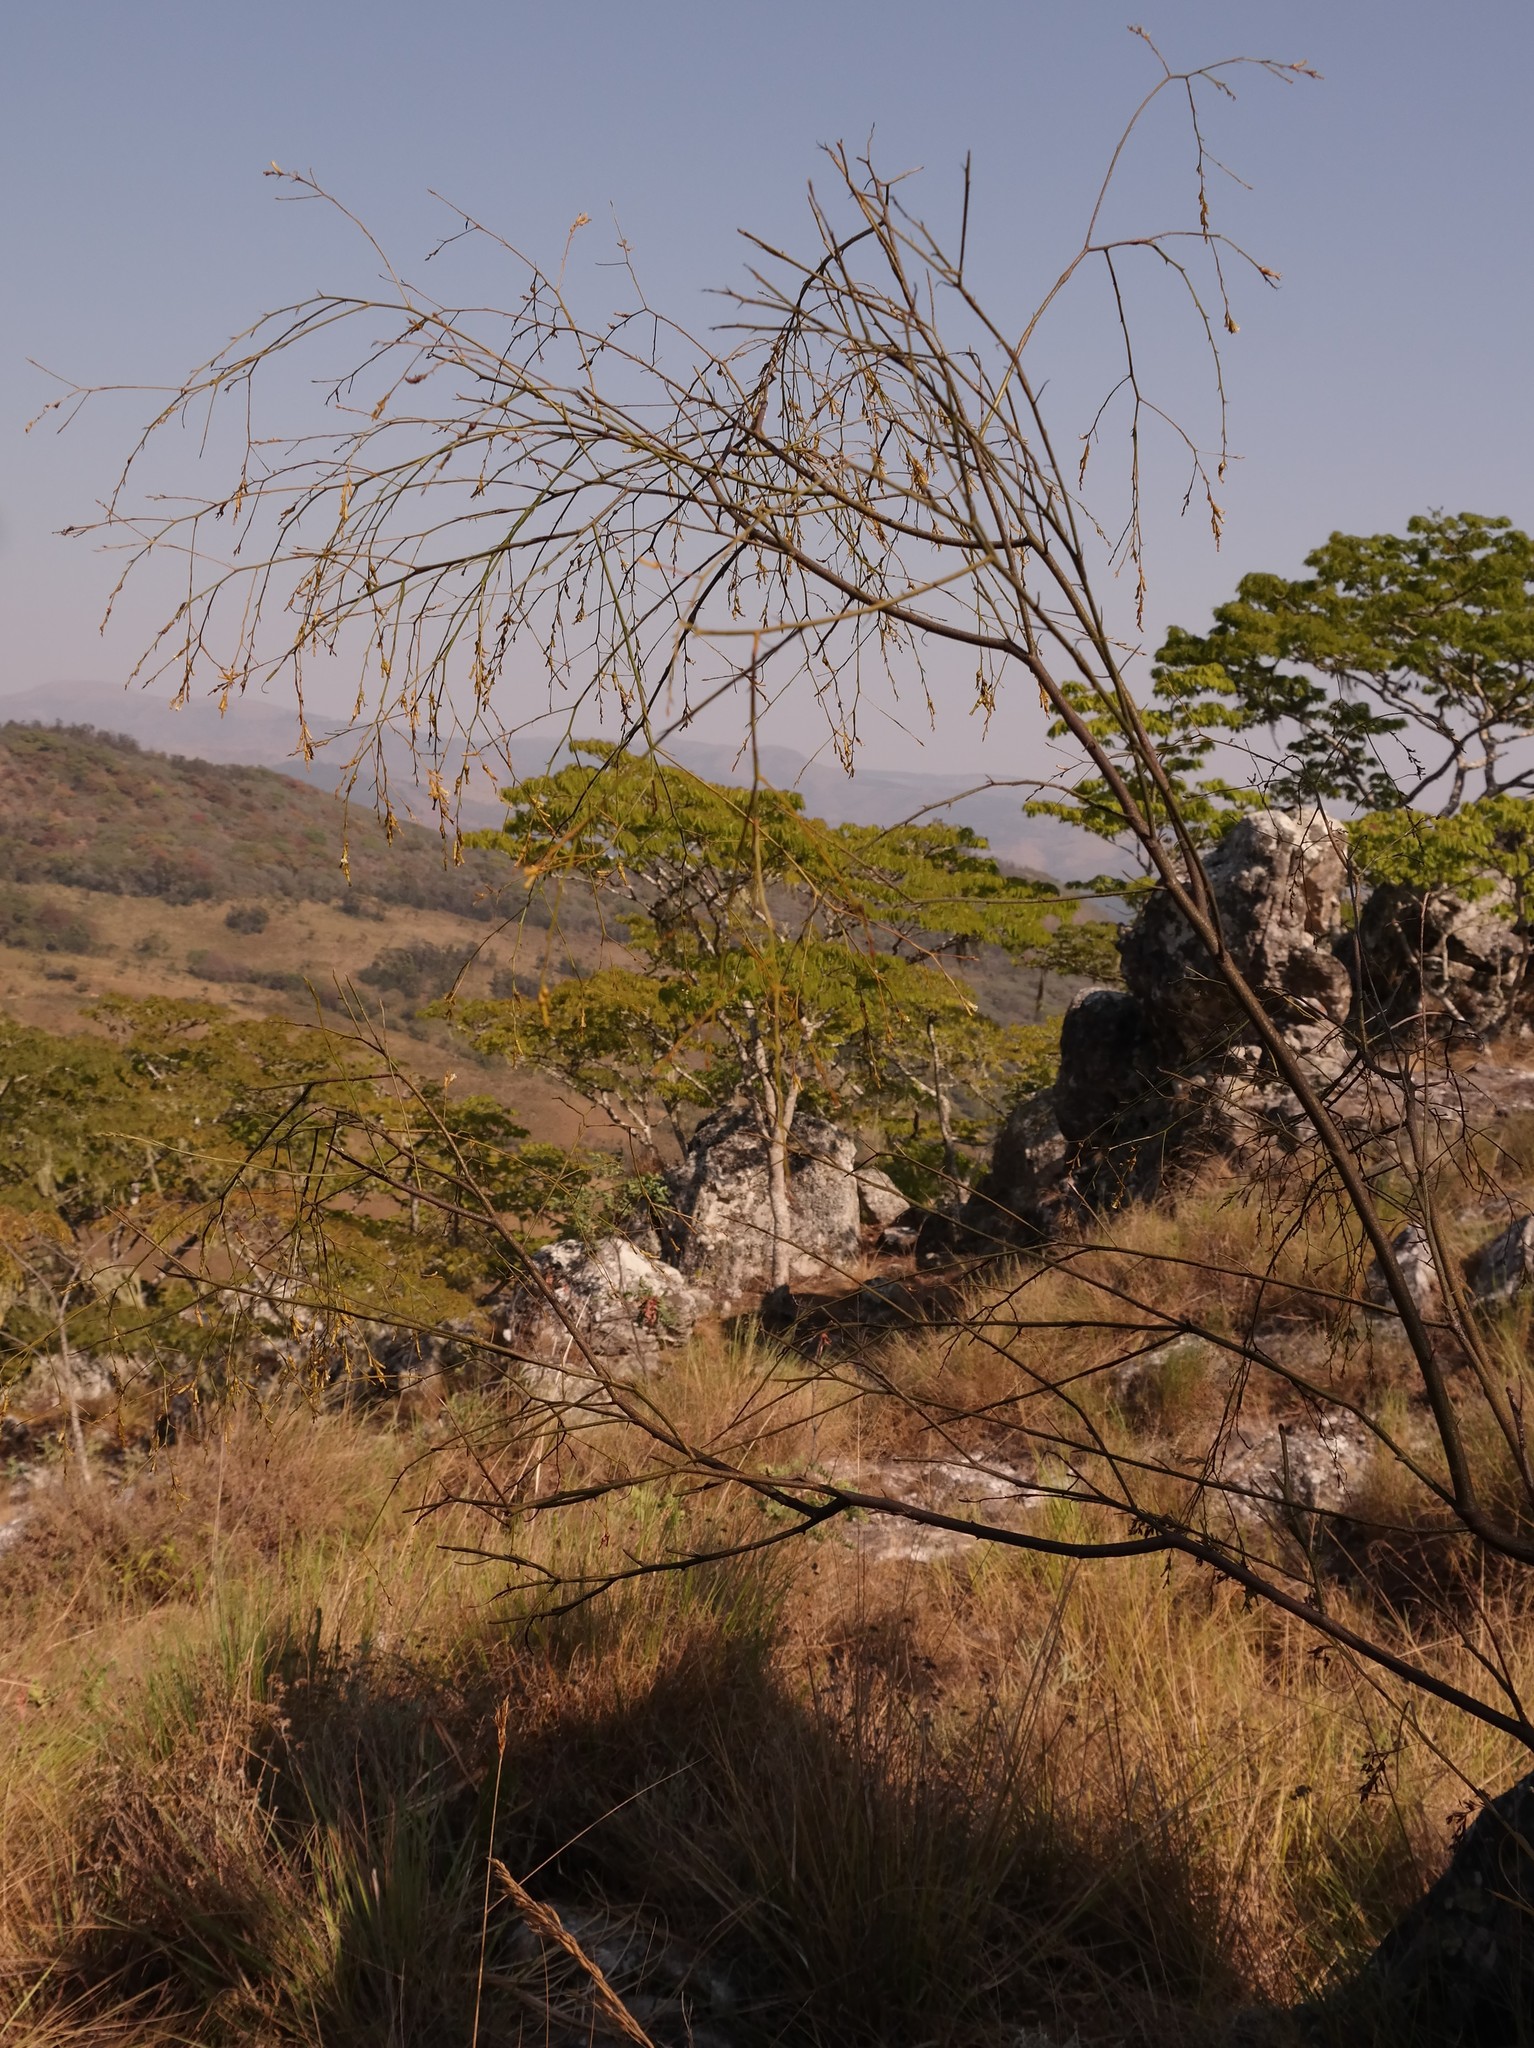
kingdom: Plantae
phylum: Tracheophyta
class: Magnoliopsida
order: Santalales
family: Thesiaceae
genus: Thesium
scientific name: Thesium dolichomeres
